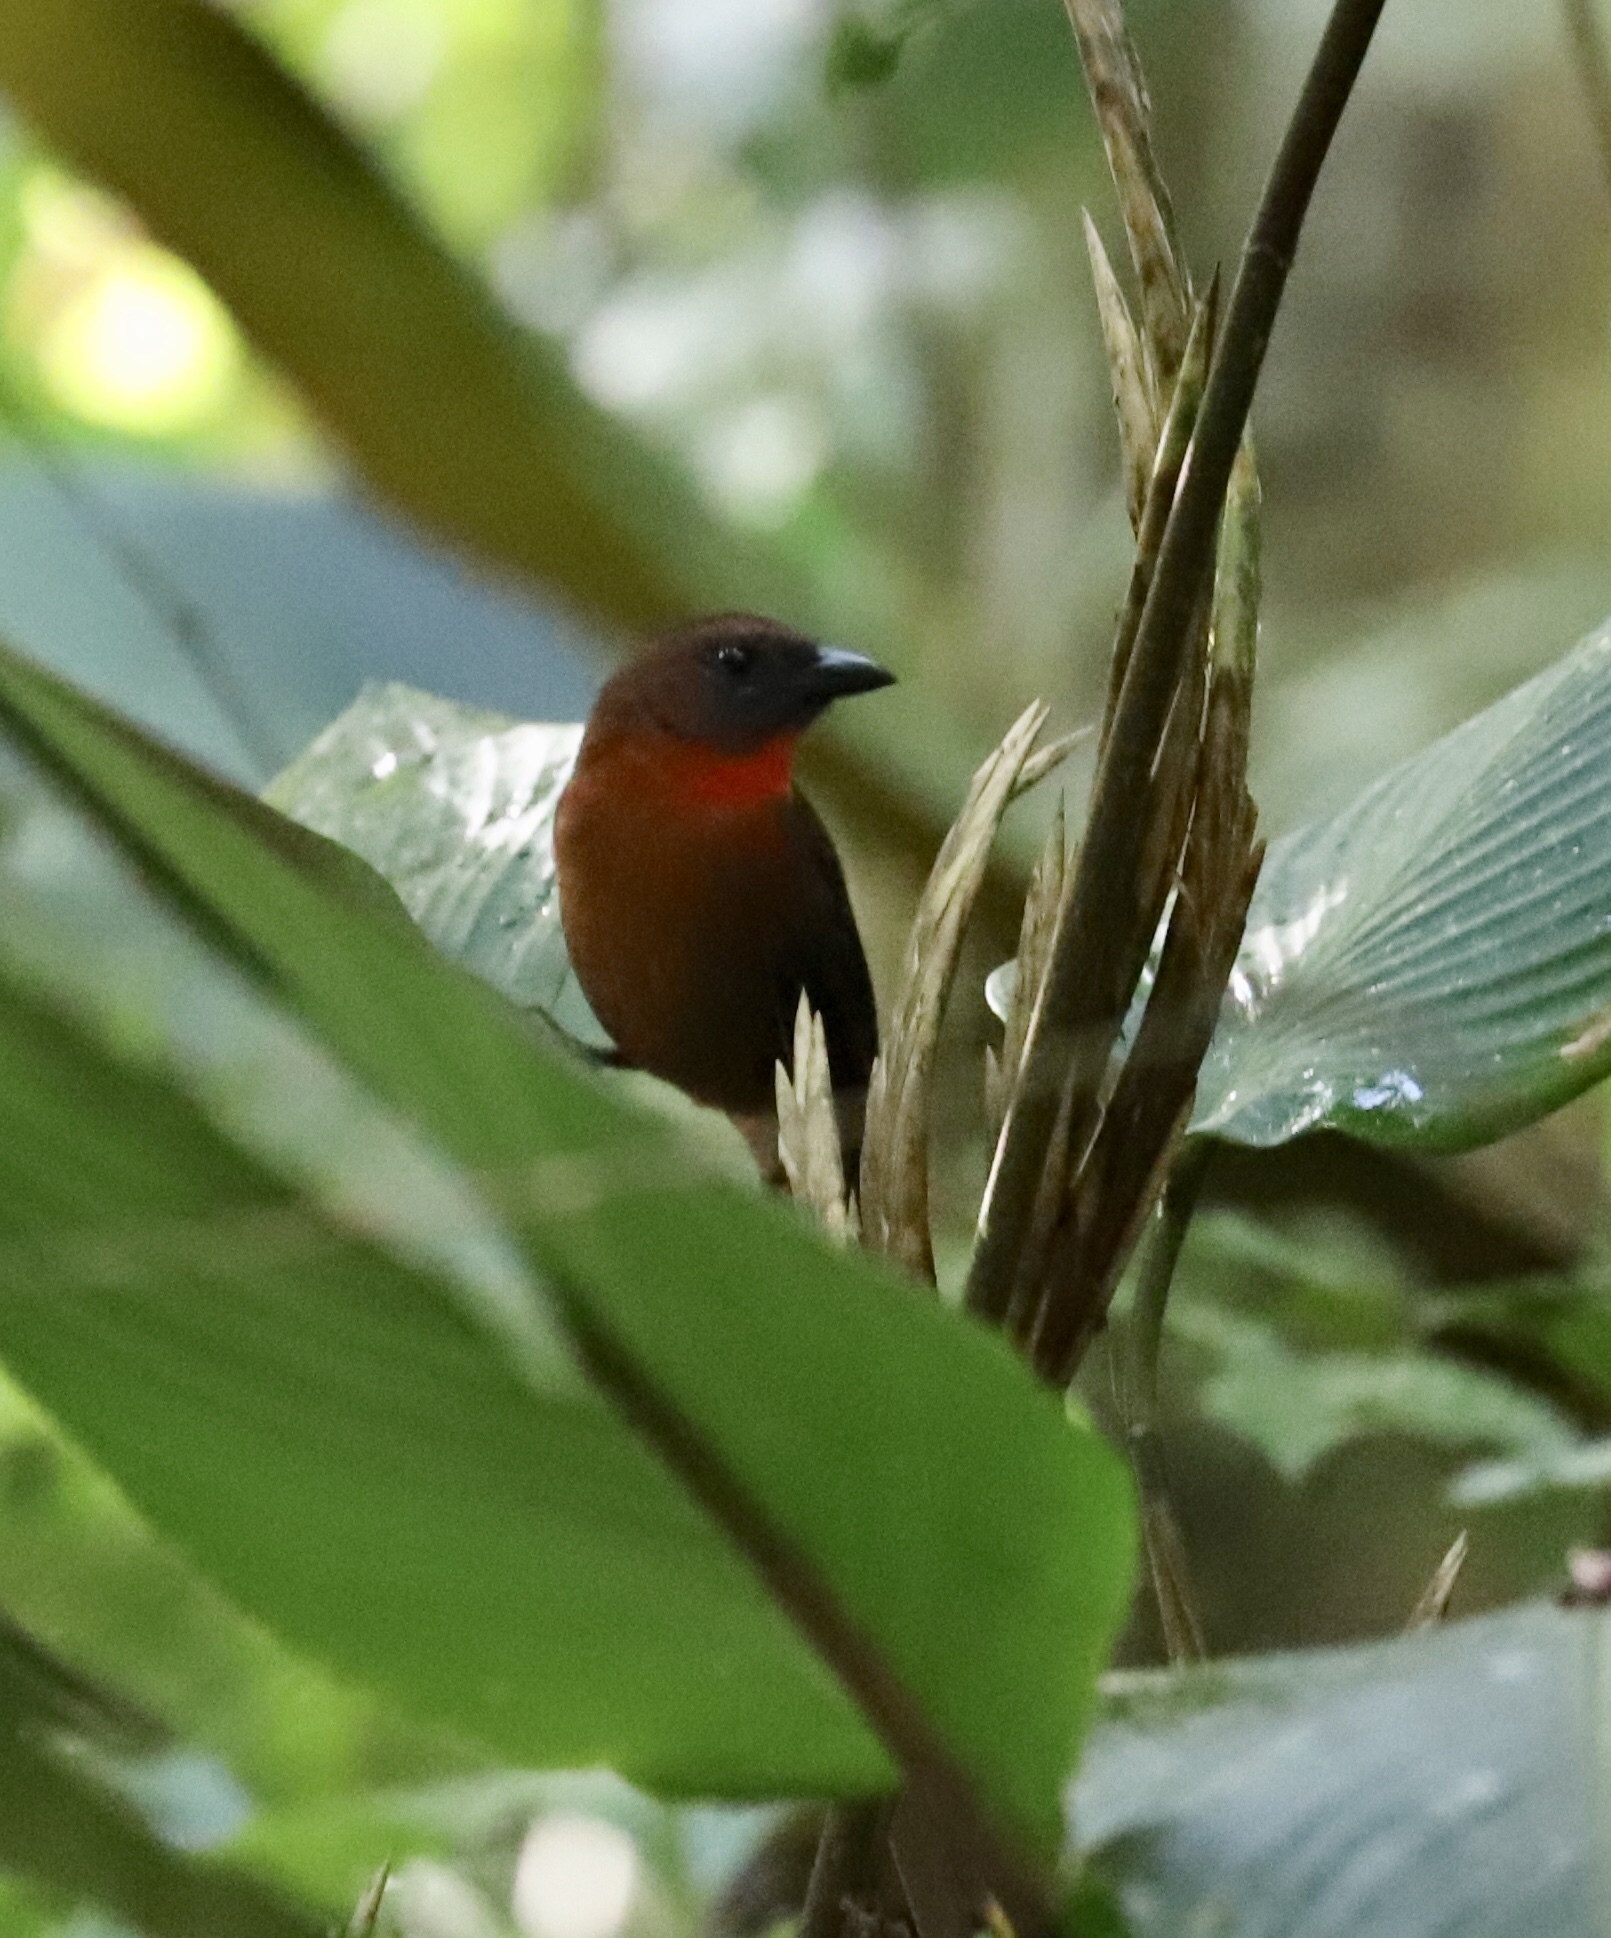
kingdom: Animalia
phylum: Chordata
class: Aves
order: Passeriformes
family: Cardinalidae
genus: Habia
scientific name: Habia fuscicauda
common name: Red-throated ant-tanager
